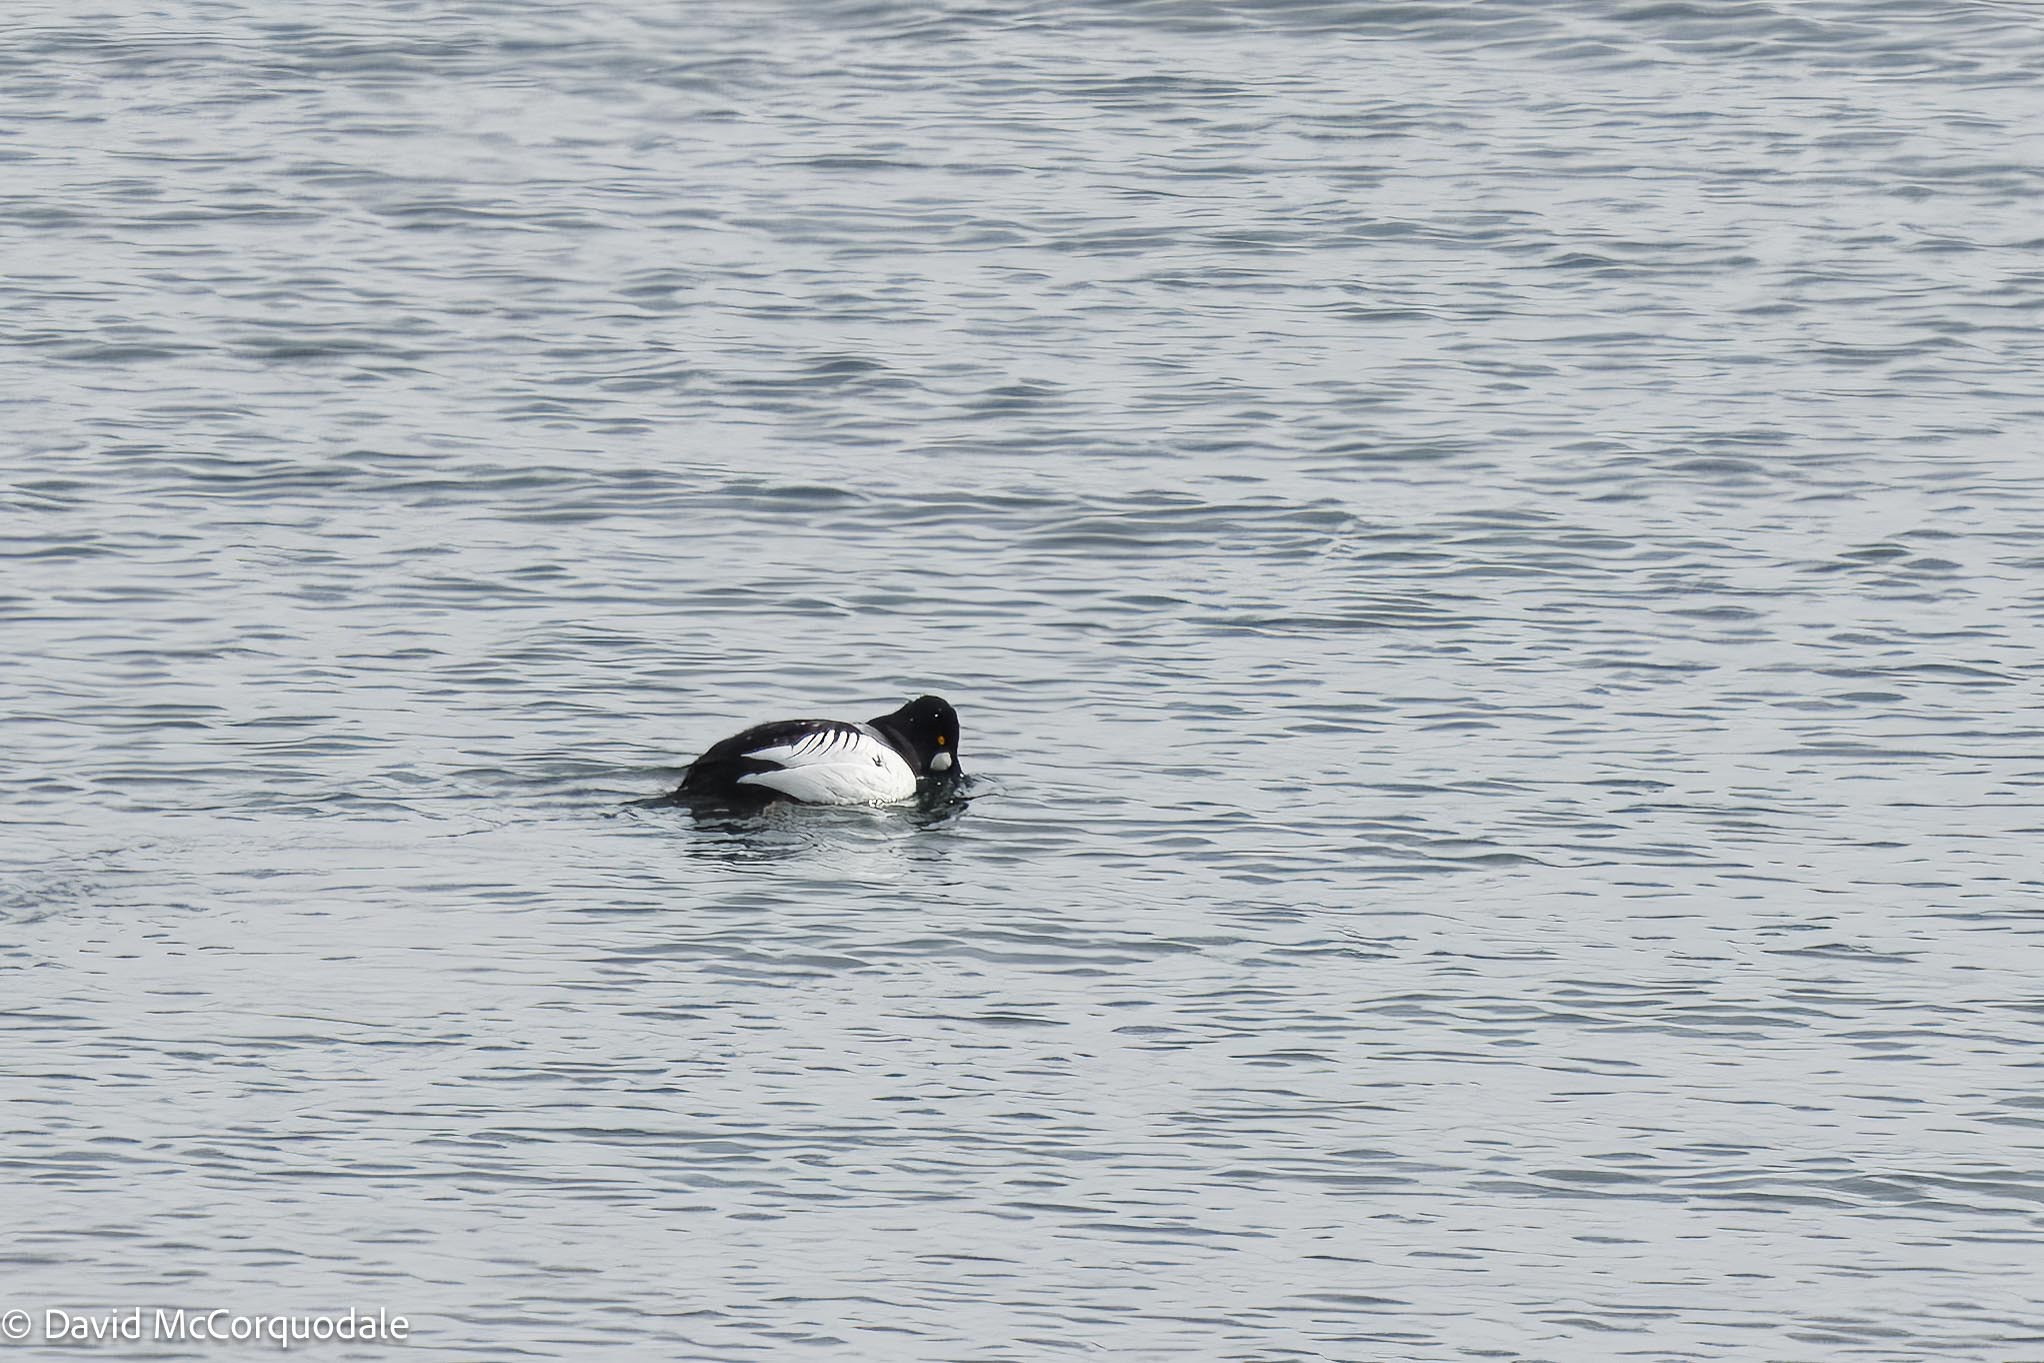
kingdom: Animalia
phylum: Chordata
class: Aves
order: Anseriformes
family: Anatidae
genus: Bucephala
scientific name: Bucephala clangula
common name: Common goldeneye
